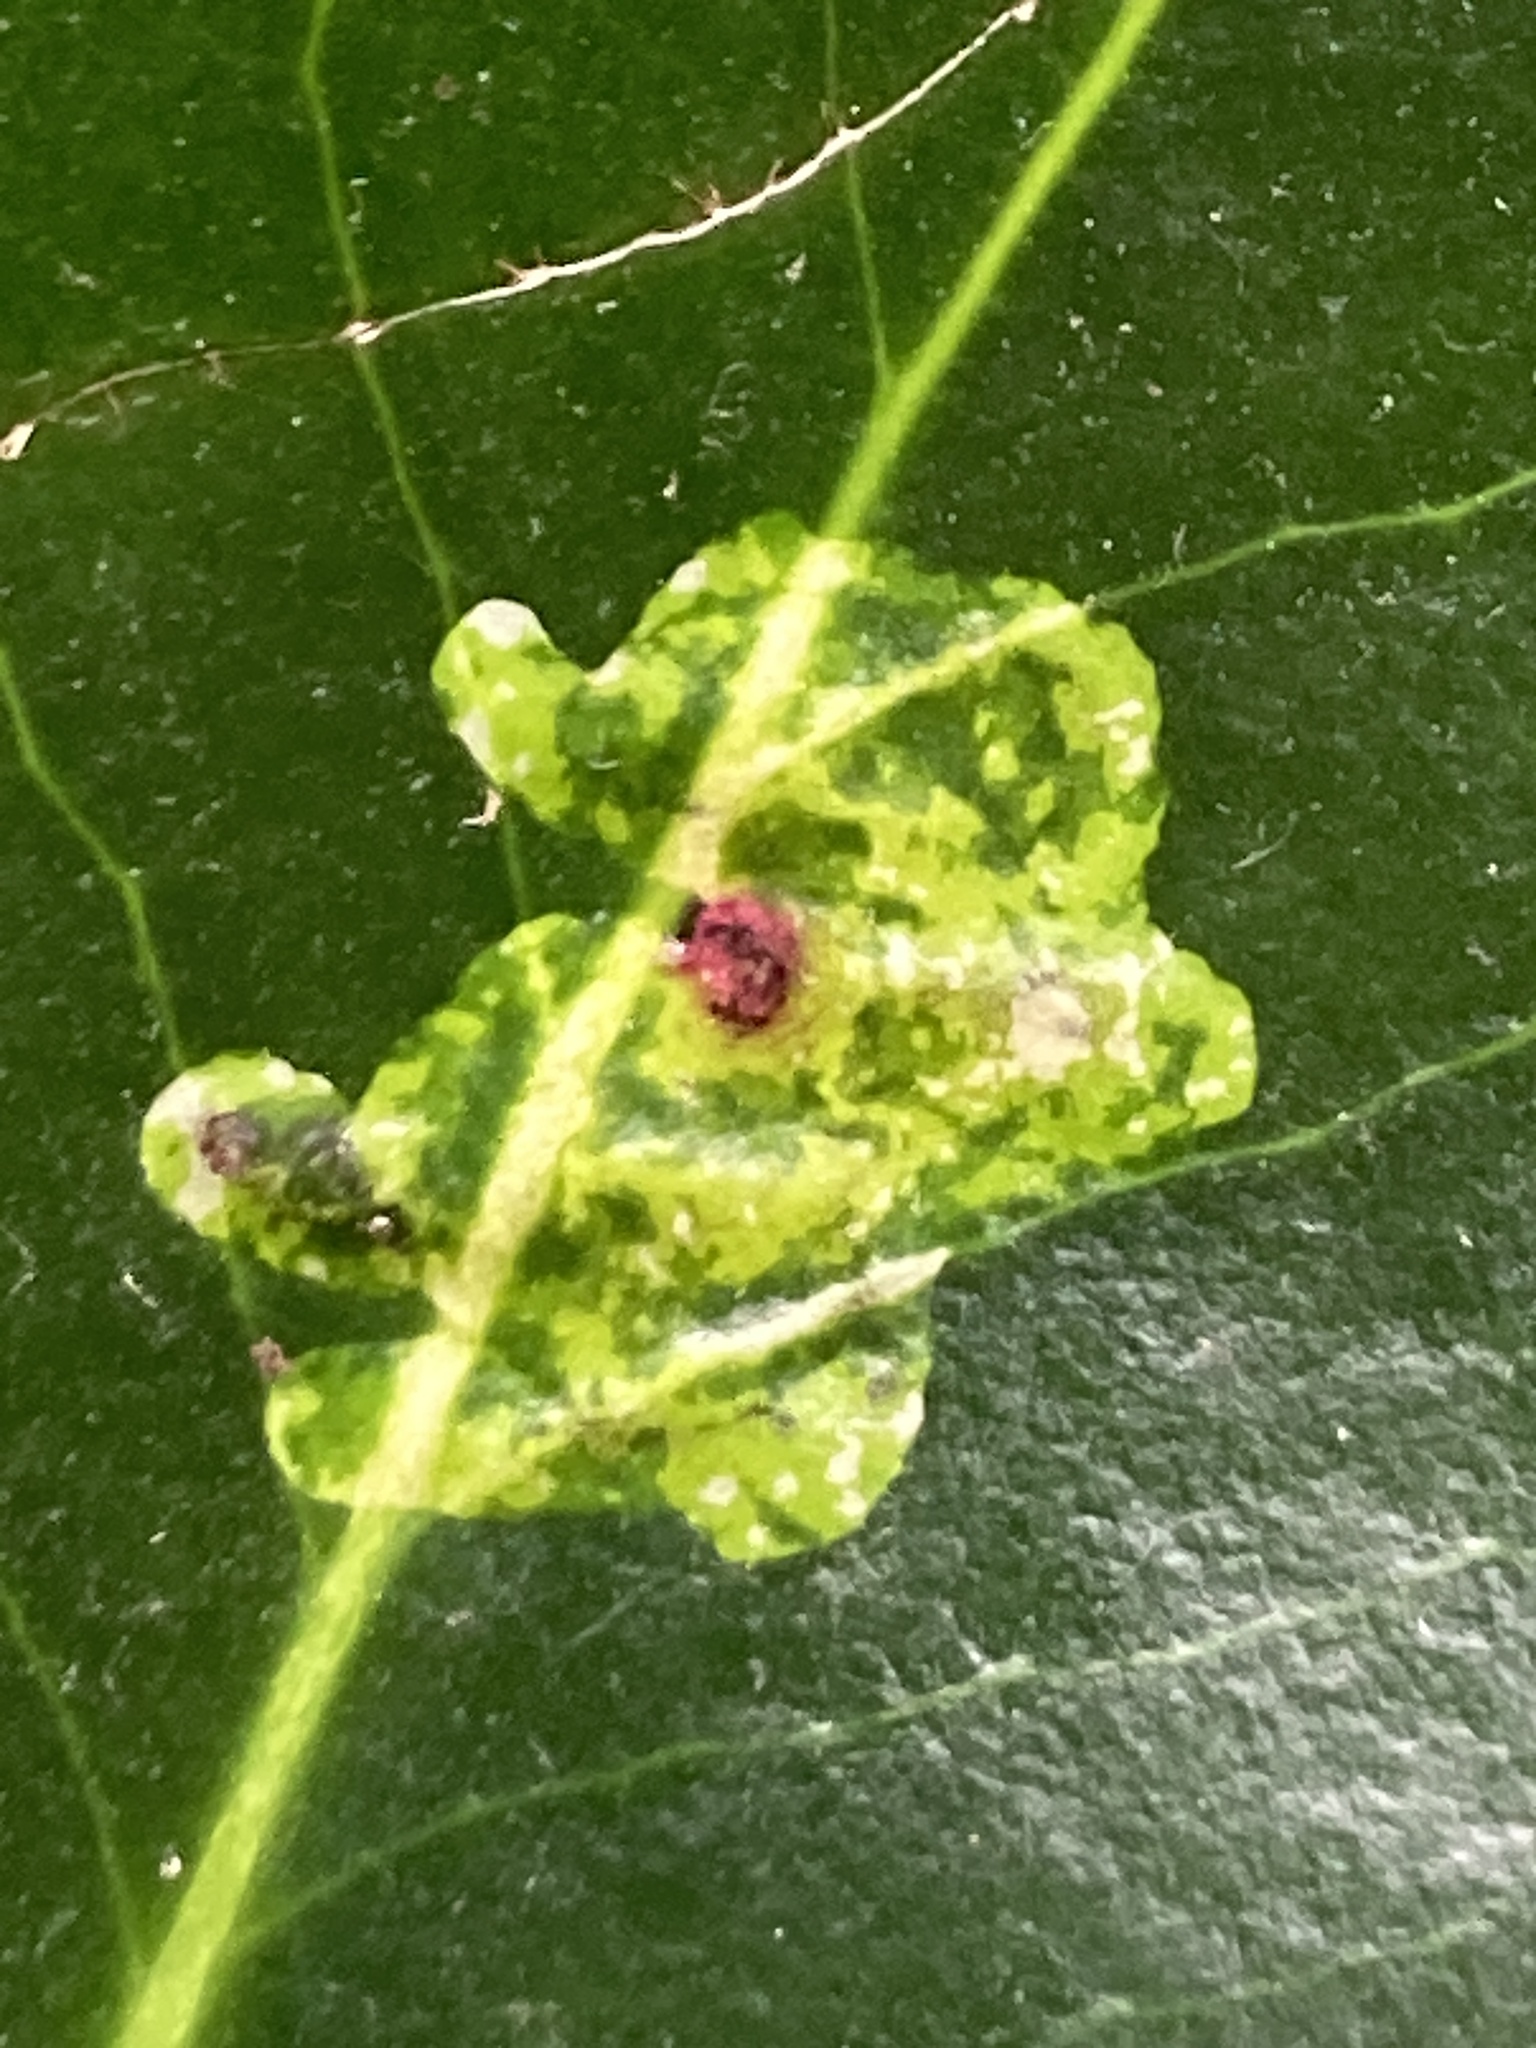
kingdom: Animalia
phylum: Arthropoda
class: Insecta
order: Diptera
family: Agromyzidae
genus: Phytomyza
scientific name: Phytomyza ilicis
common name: Holly leafminer
